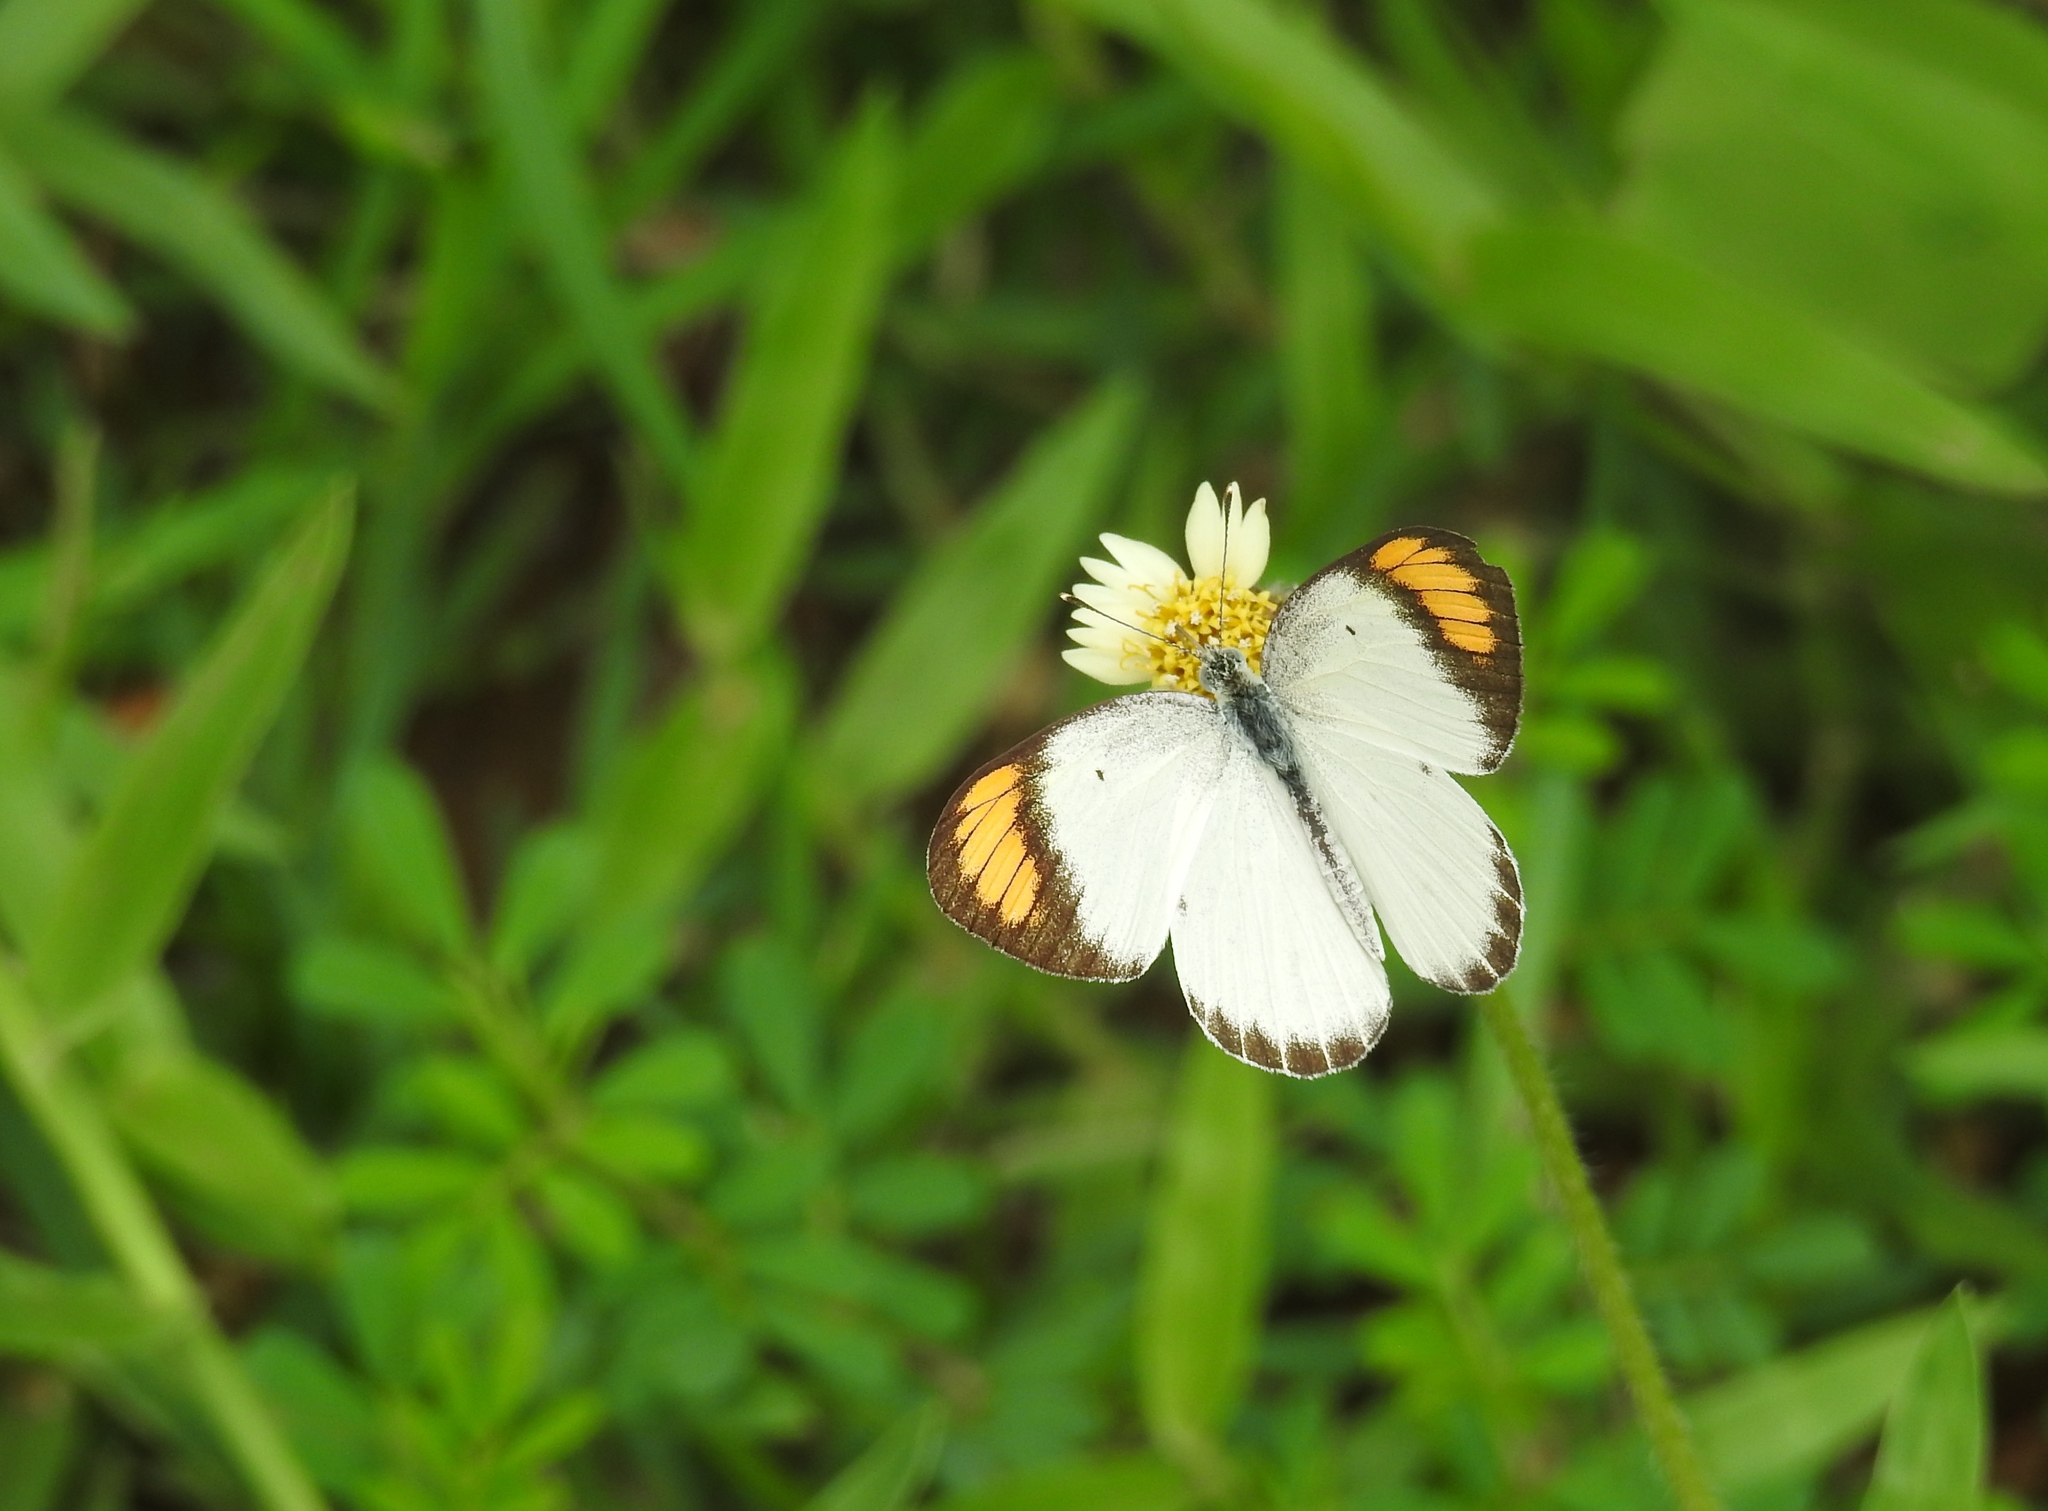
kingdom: Animalia
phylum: Arthropoda
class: Insecta
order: Lepidoptera
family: Pieridae
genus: Colotis
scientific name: Colotis etrida
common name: Little orange tip
